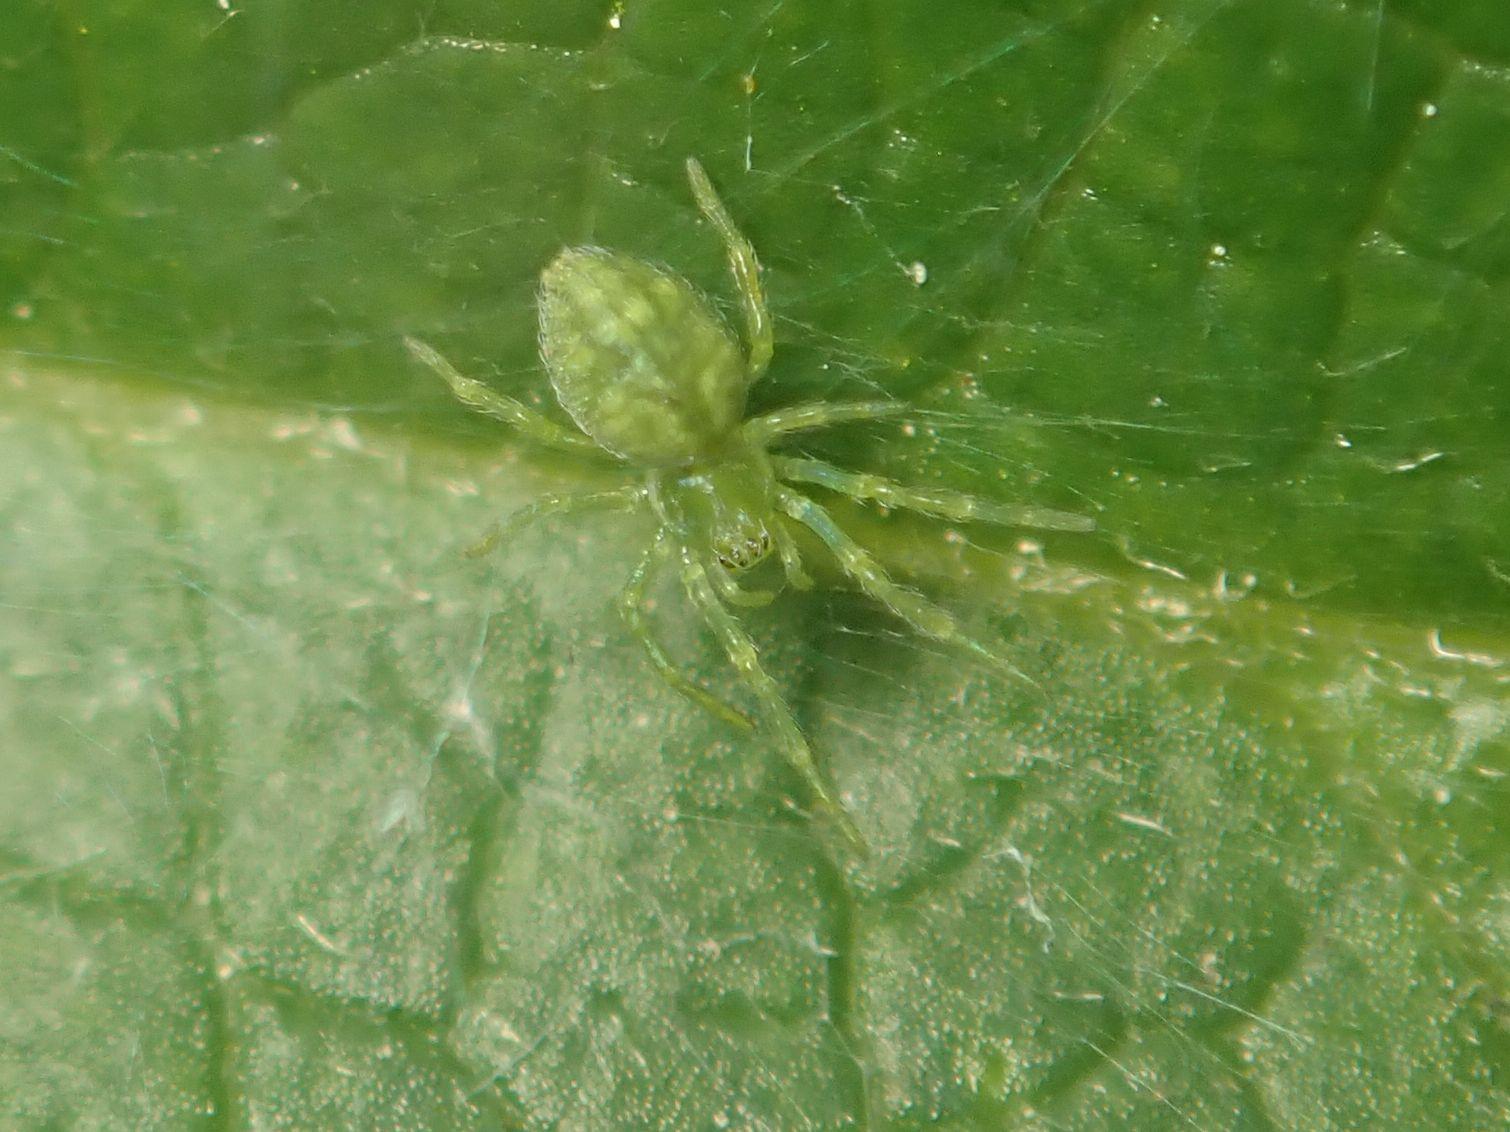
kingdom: Animalia
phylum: Arthropoda
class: Arachnida
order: Araneae
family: Dictynidae
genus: Nigma
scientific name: Nigma walckenaeri
